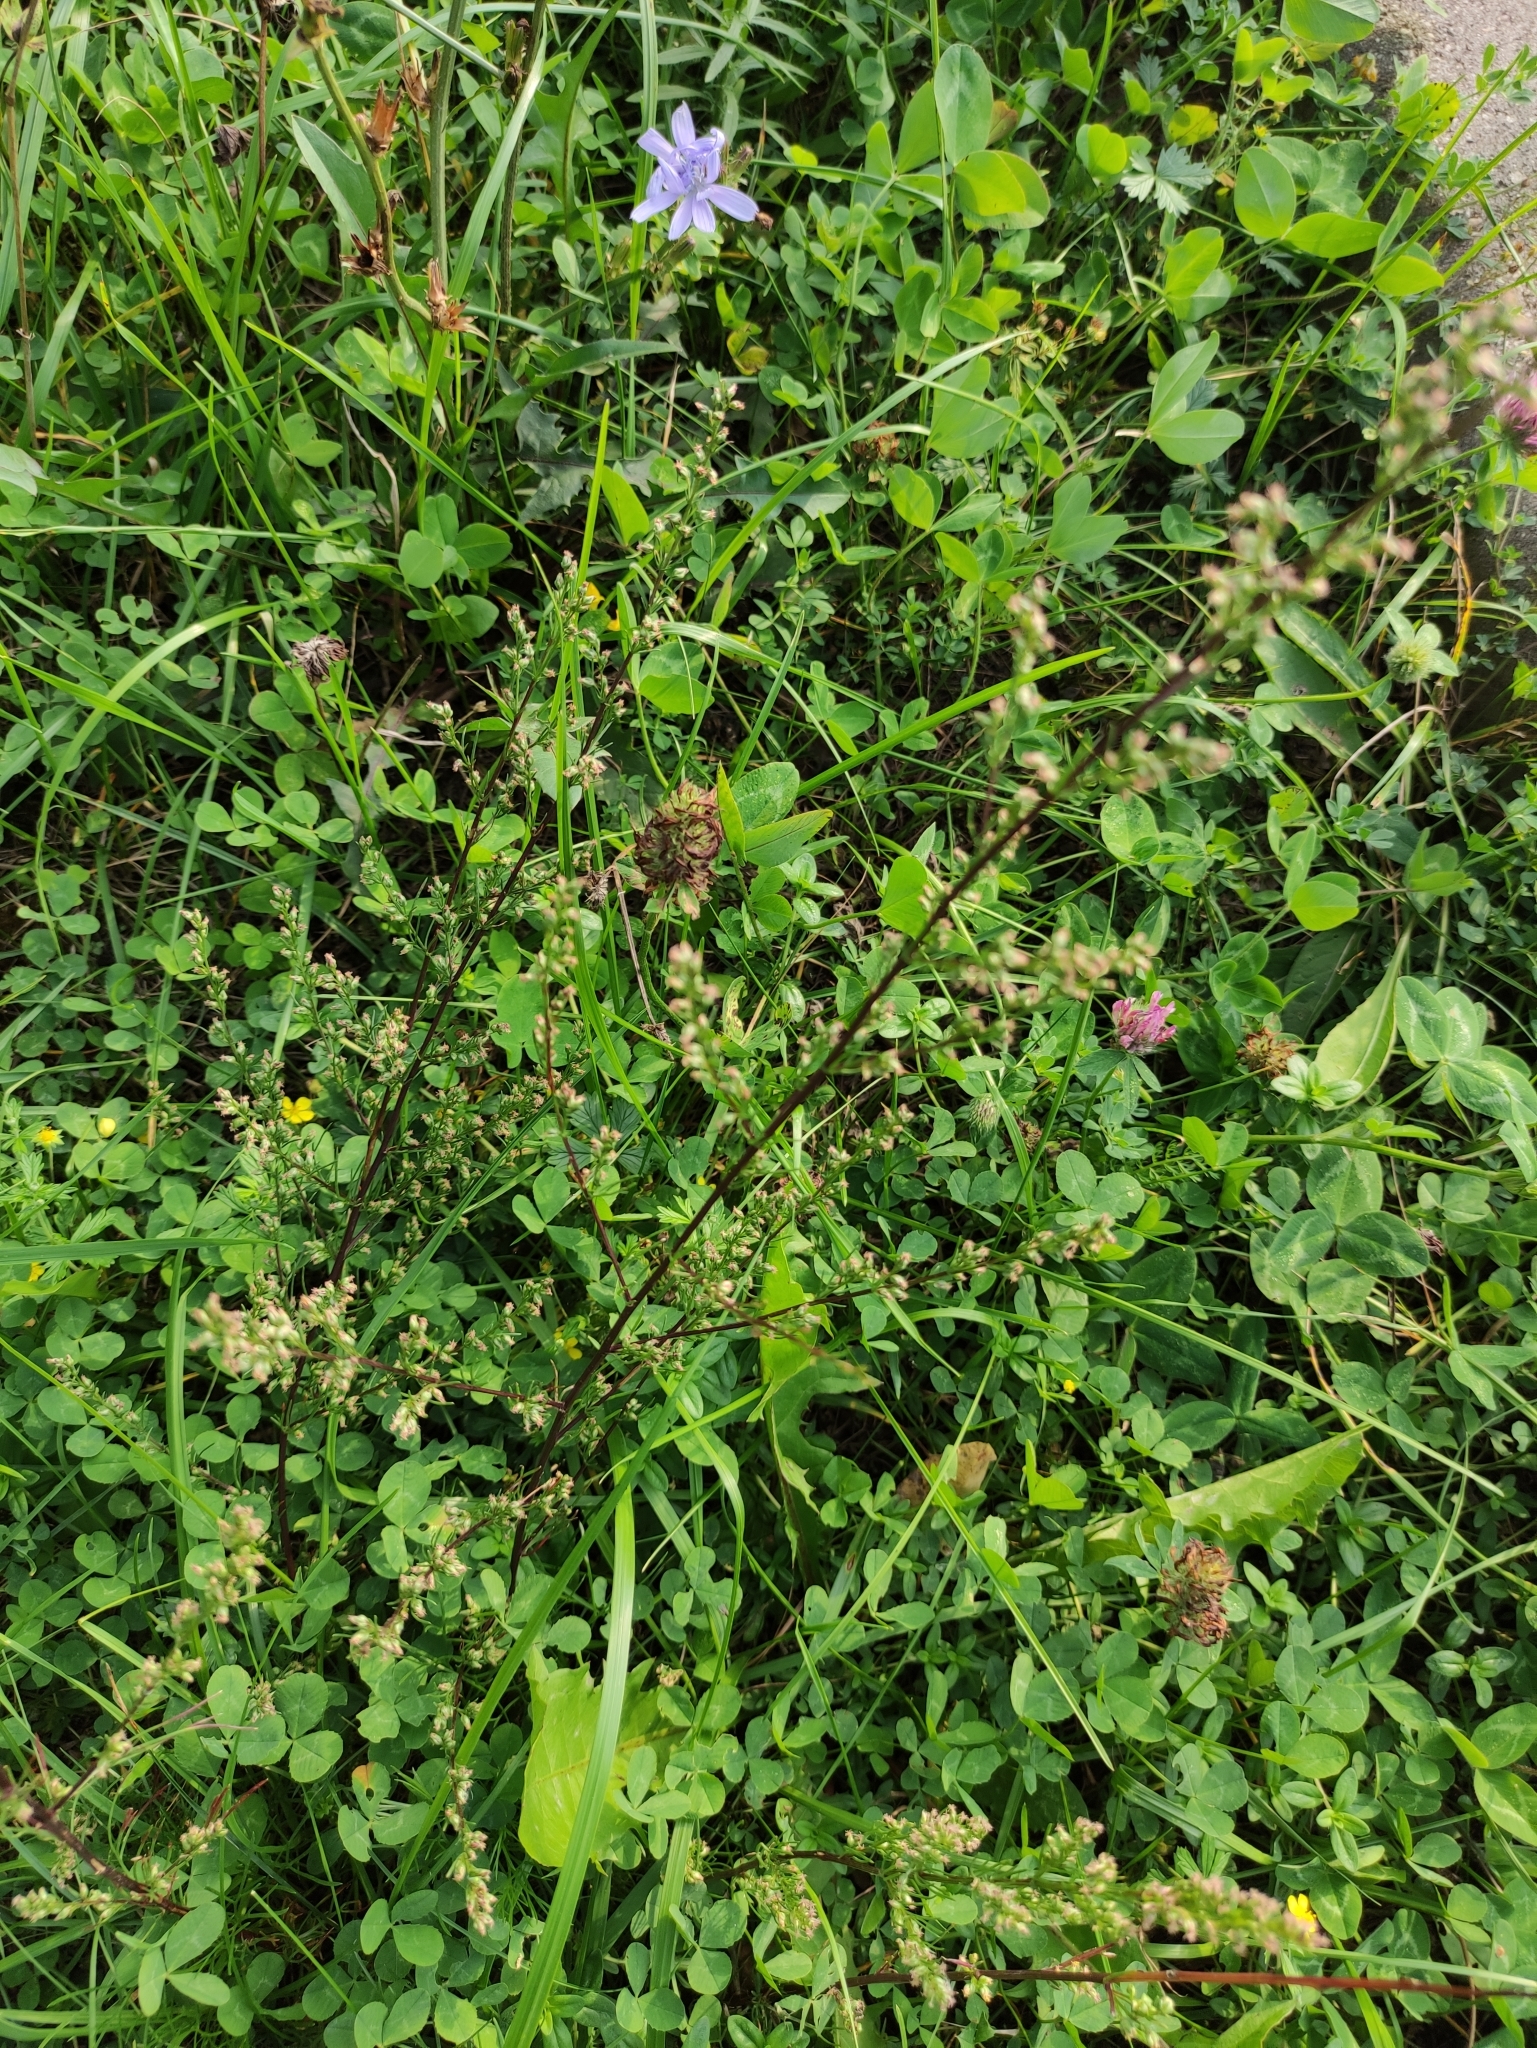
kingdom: Plantae
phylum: Tracheophyta
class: Magnoliopsida
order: Asterales
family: Asteraceae
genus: Artemisia
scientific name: Artemisia campestris
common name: Field wormwood
